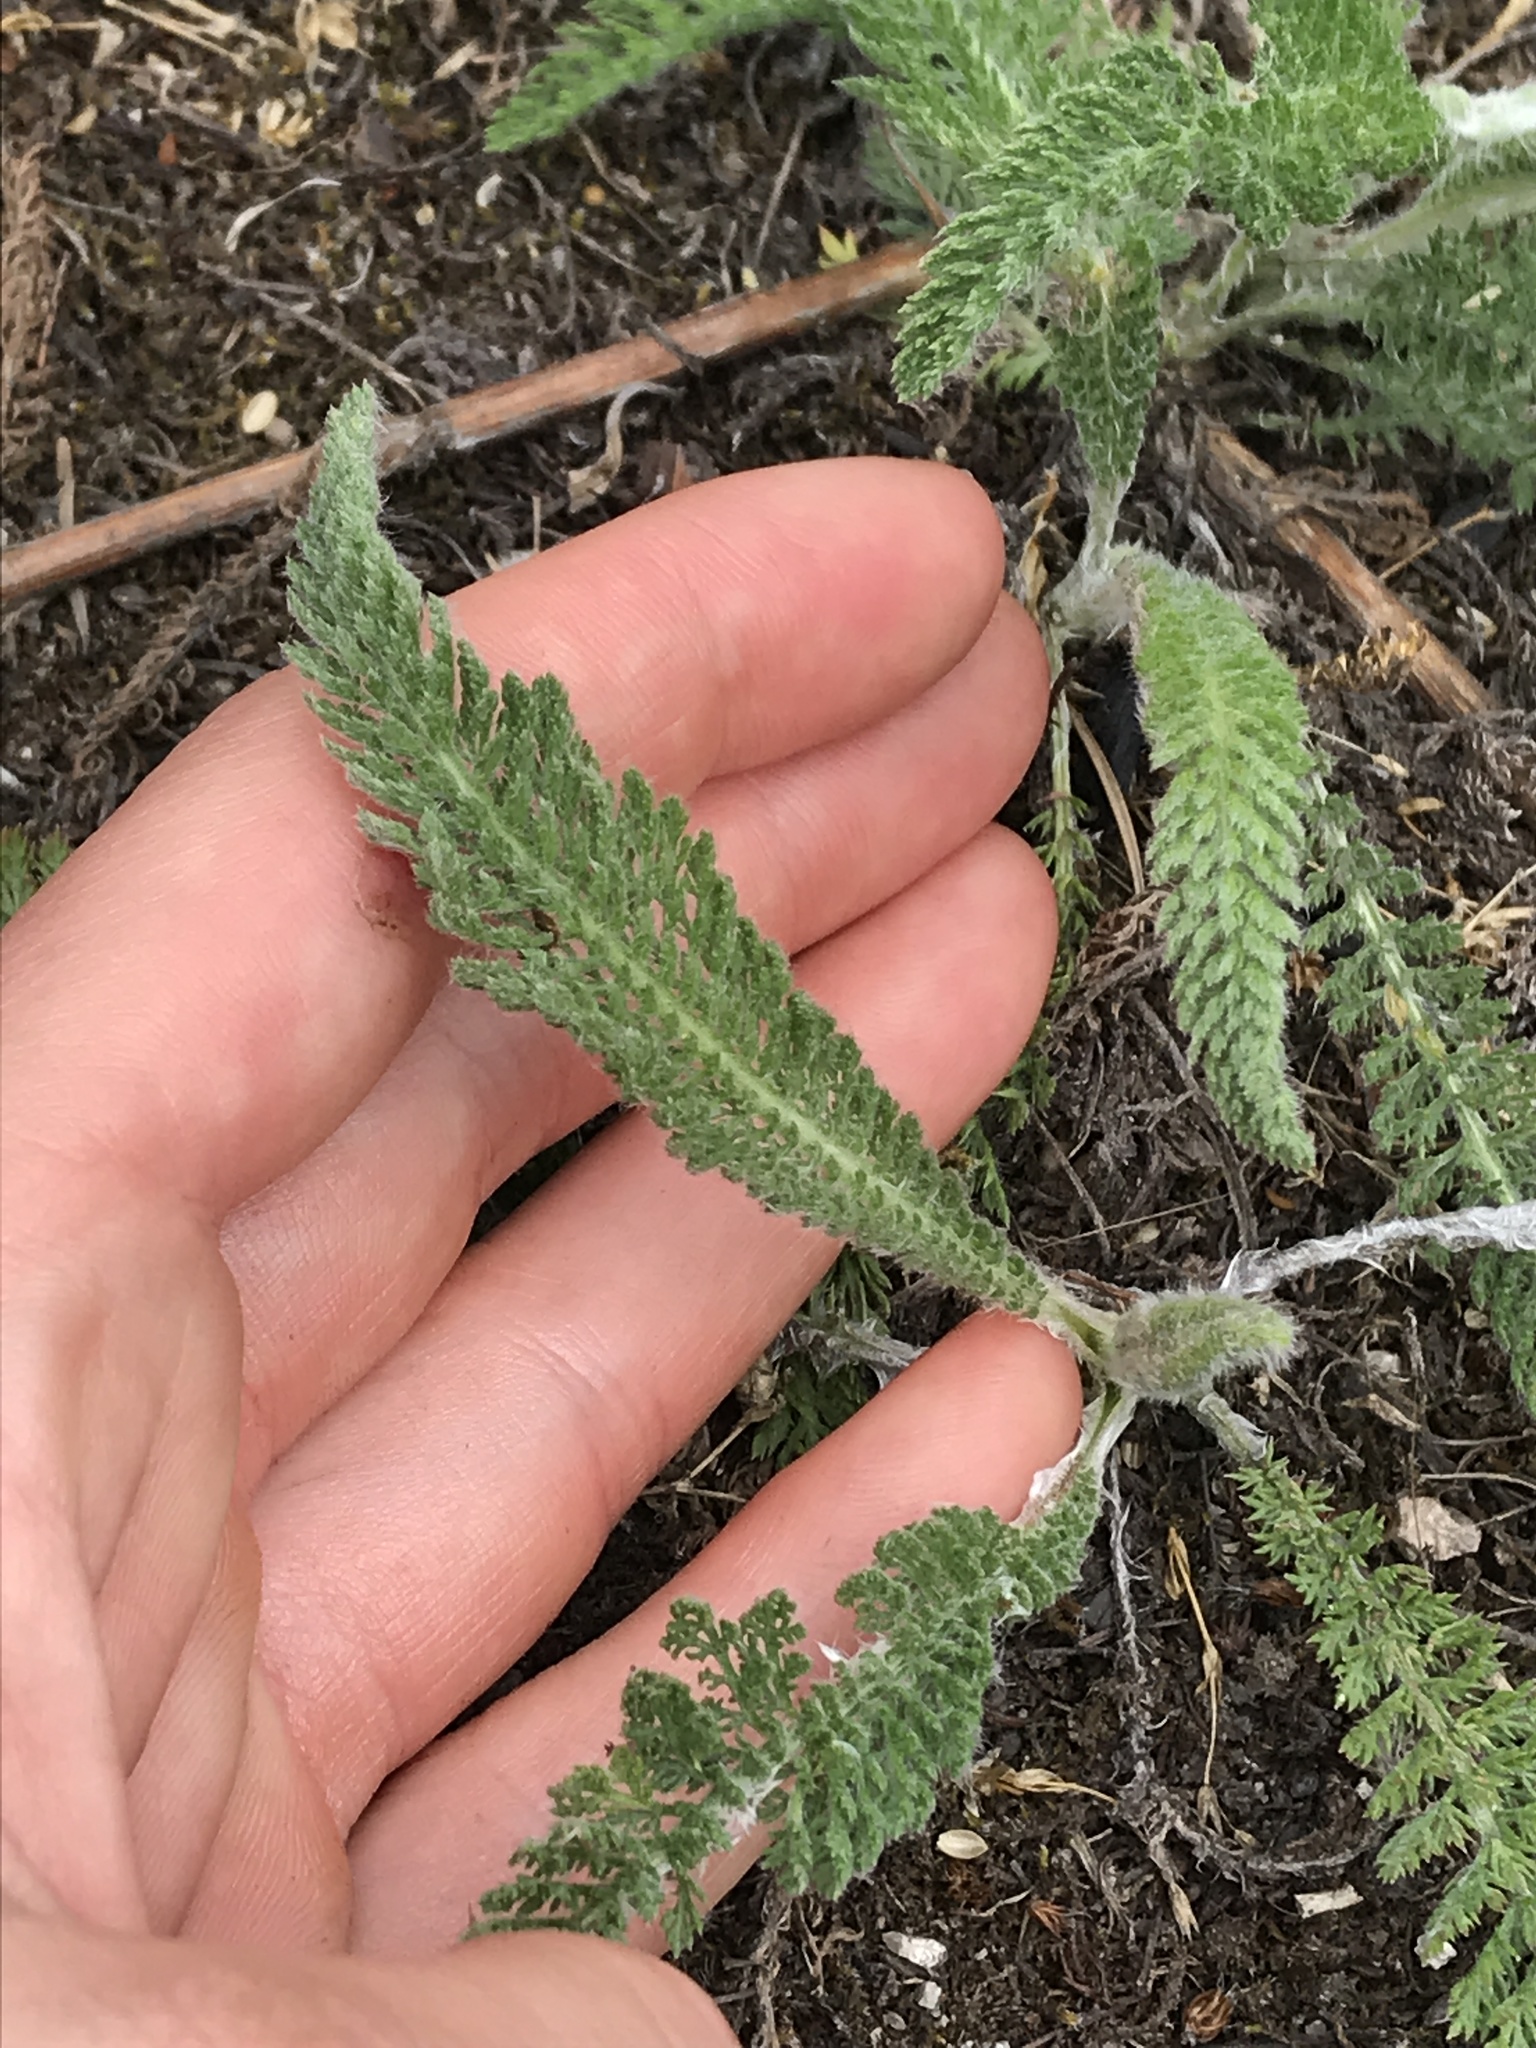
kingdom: Plantae
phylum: Tracheophyta
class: Magnoliopsida
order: Asterales
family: Asteraceae
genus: Achillea
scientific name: Achillea millefolium
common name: Yarrow
